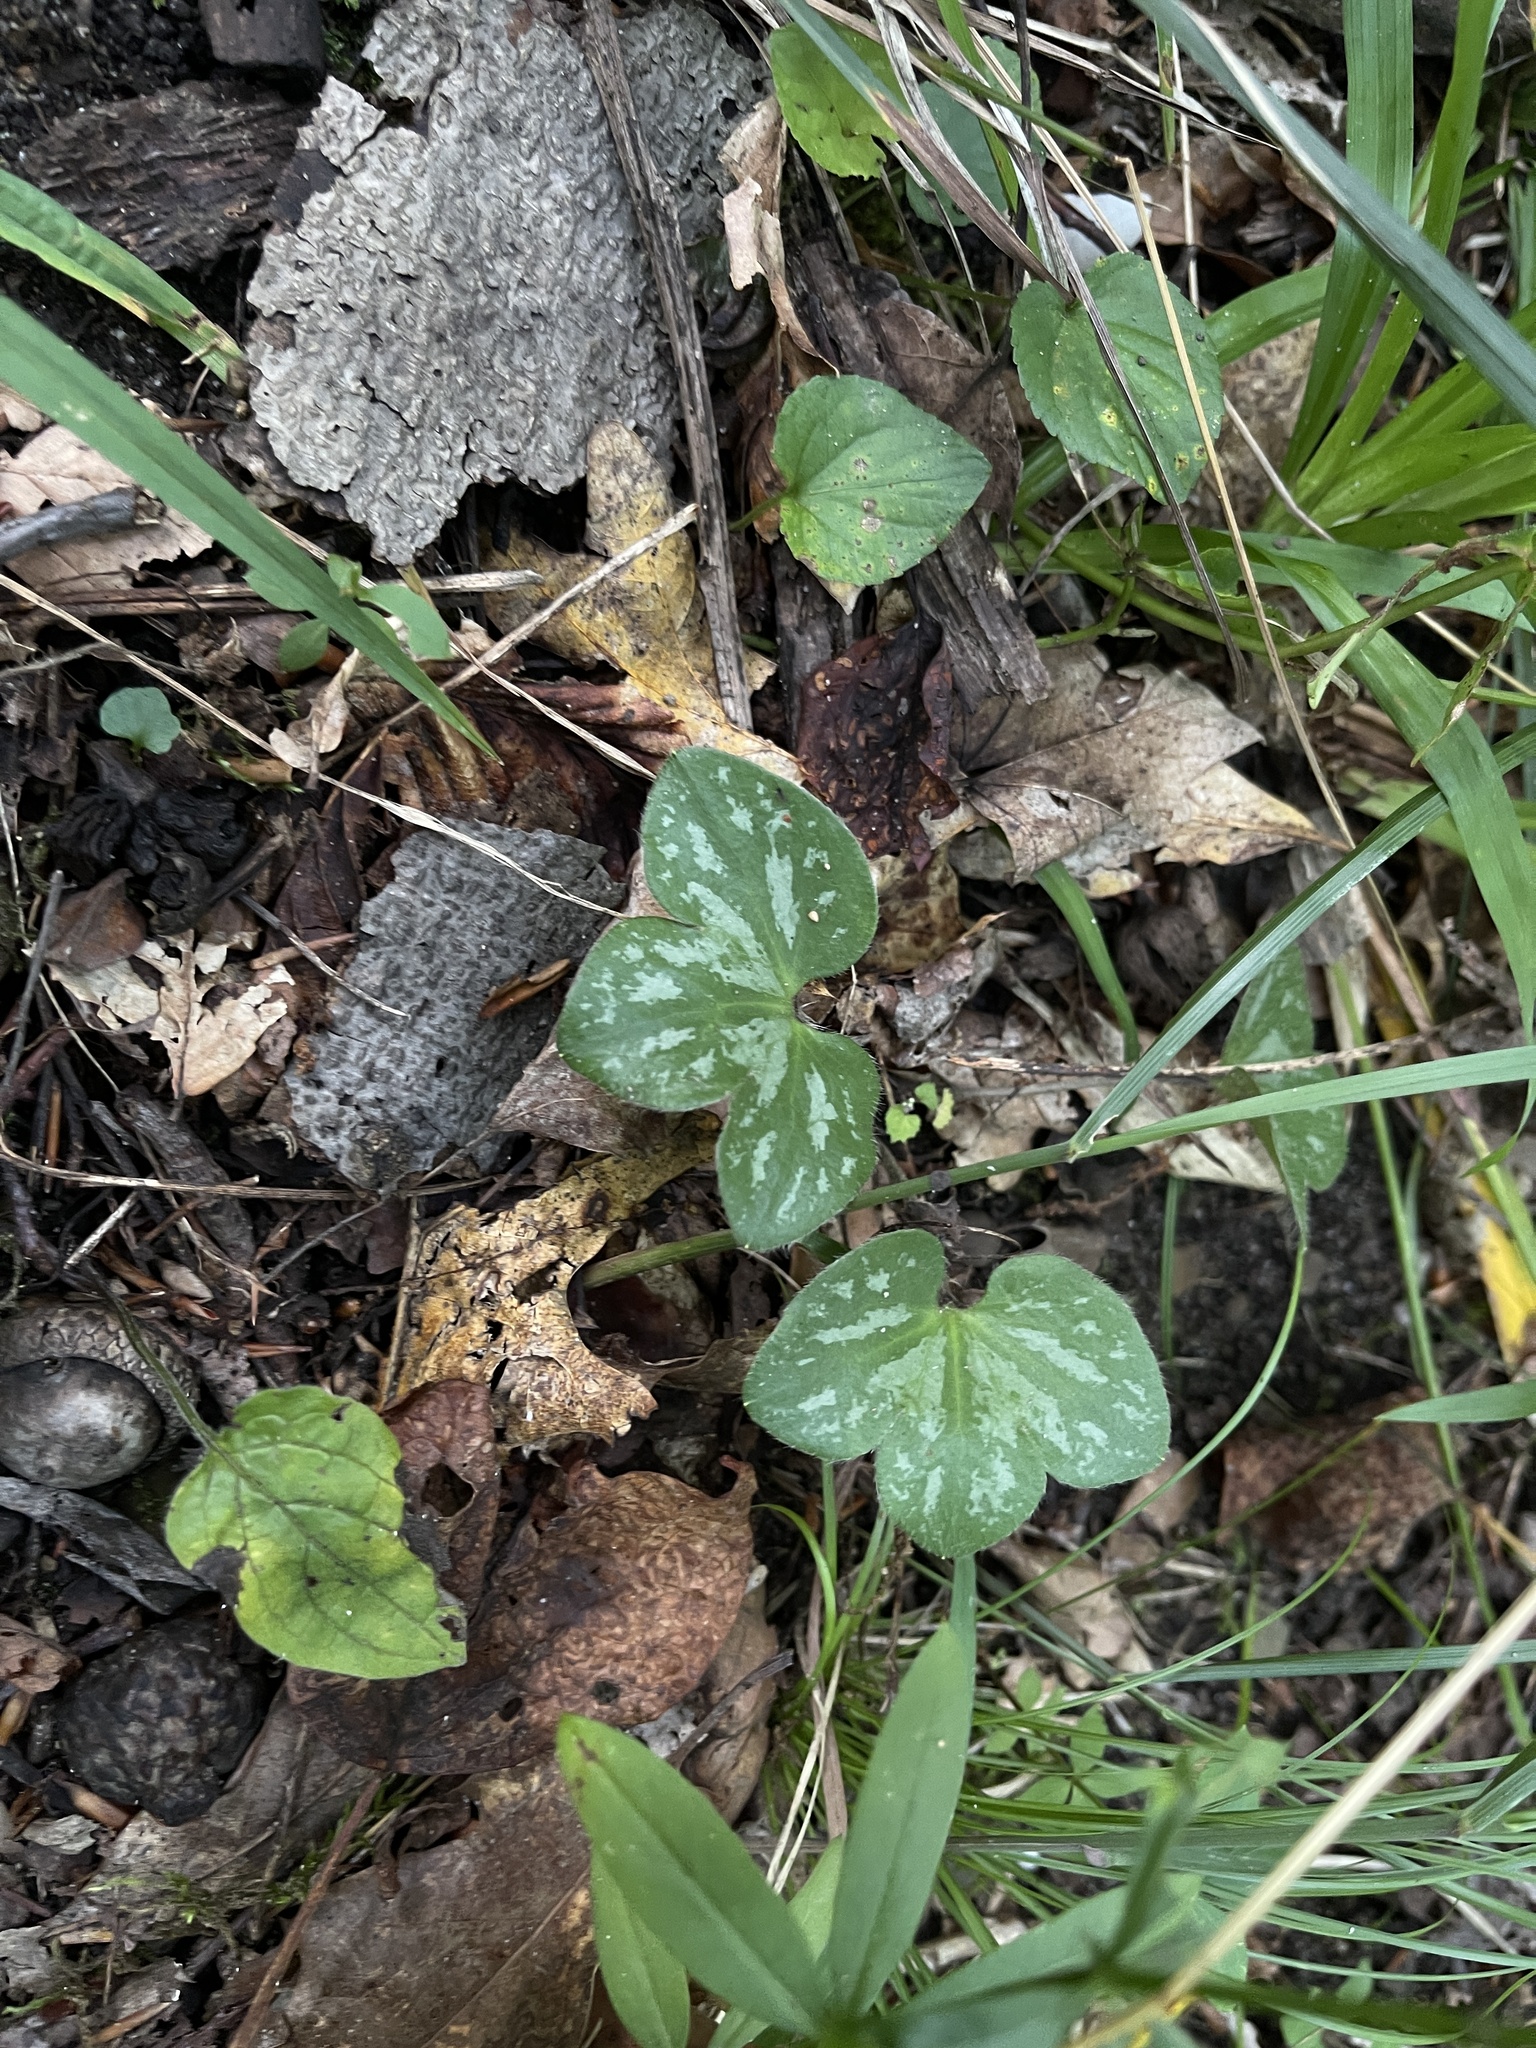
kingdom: Plantae
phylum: Tracheophyta
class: Magnoliopsida
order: Ranunculales
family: Ranunculaceae
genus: Hepatica
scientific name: Hepatica americana
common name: American hepatica
